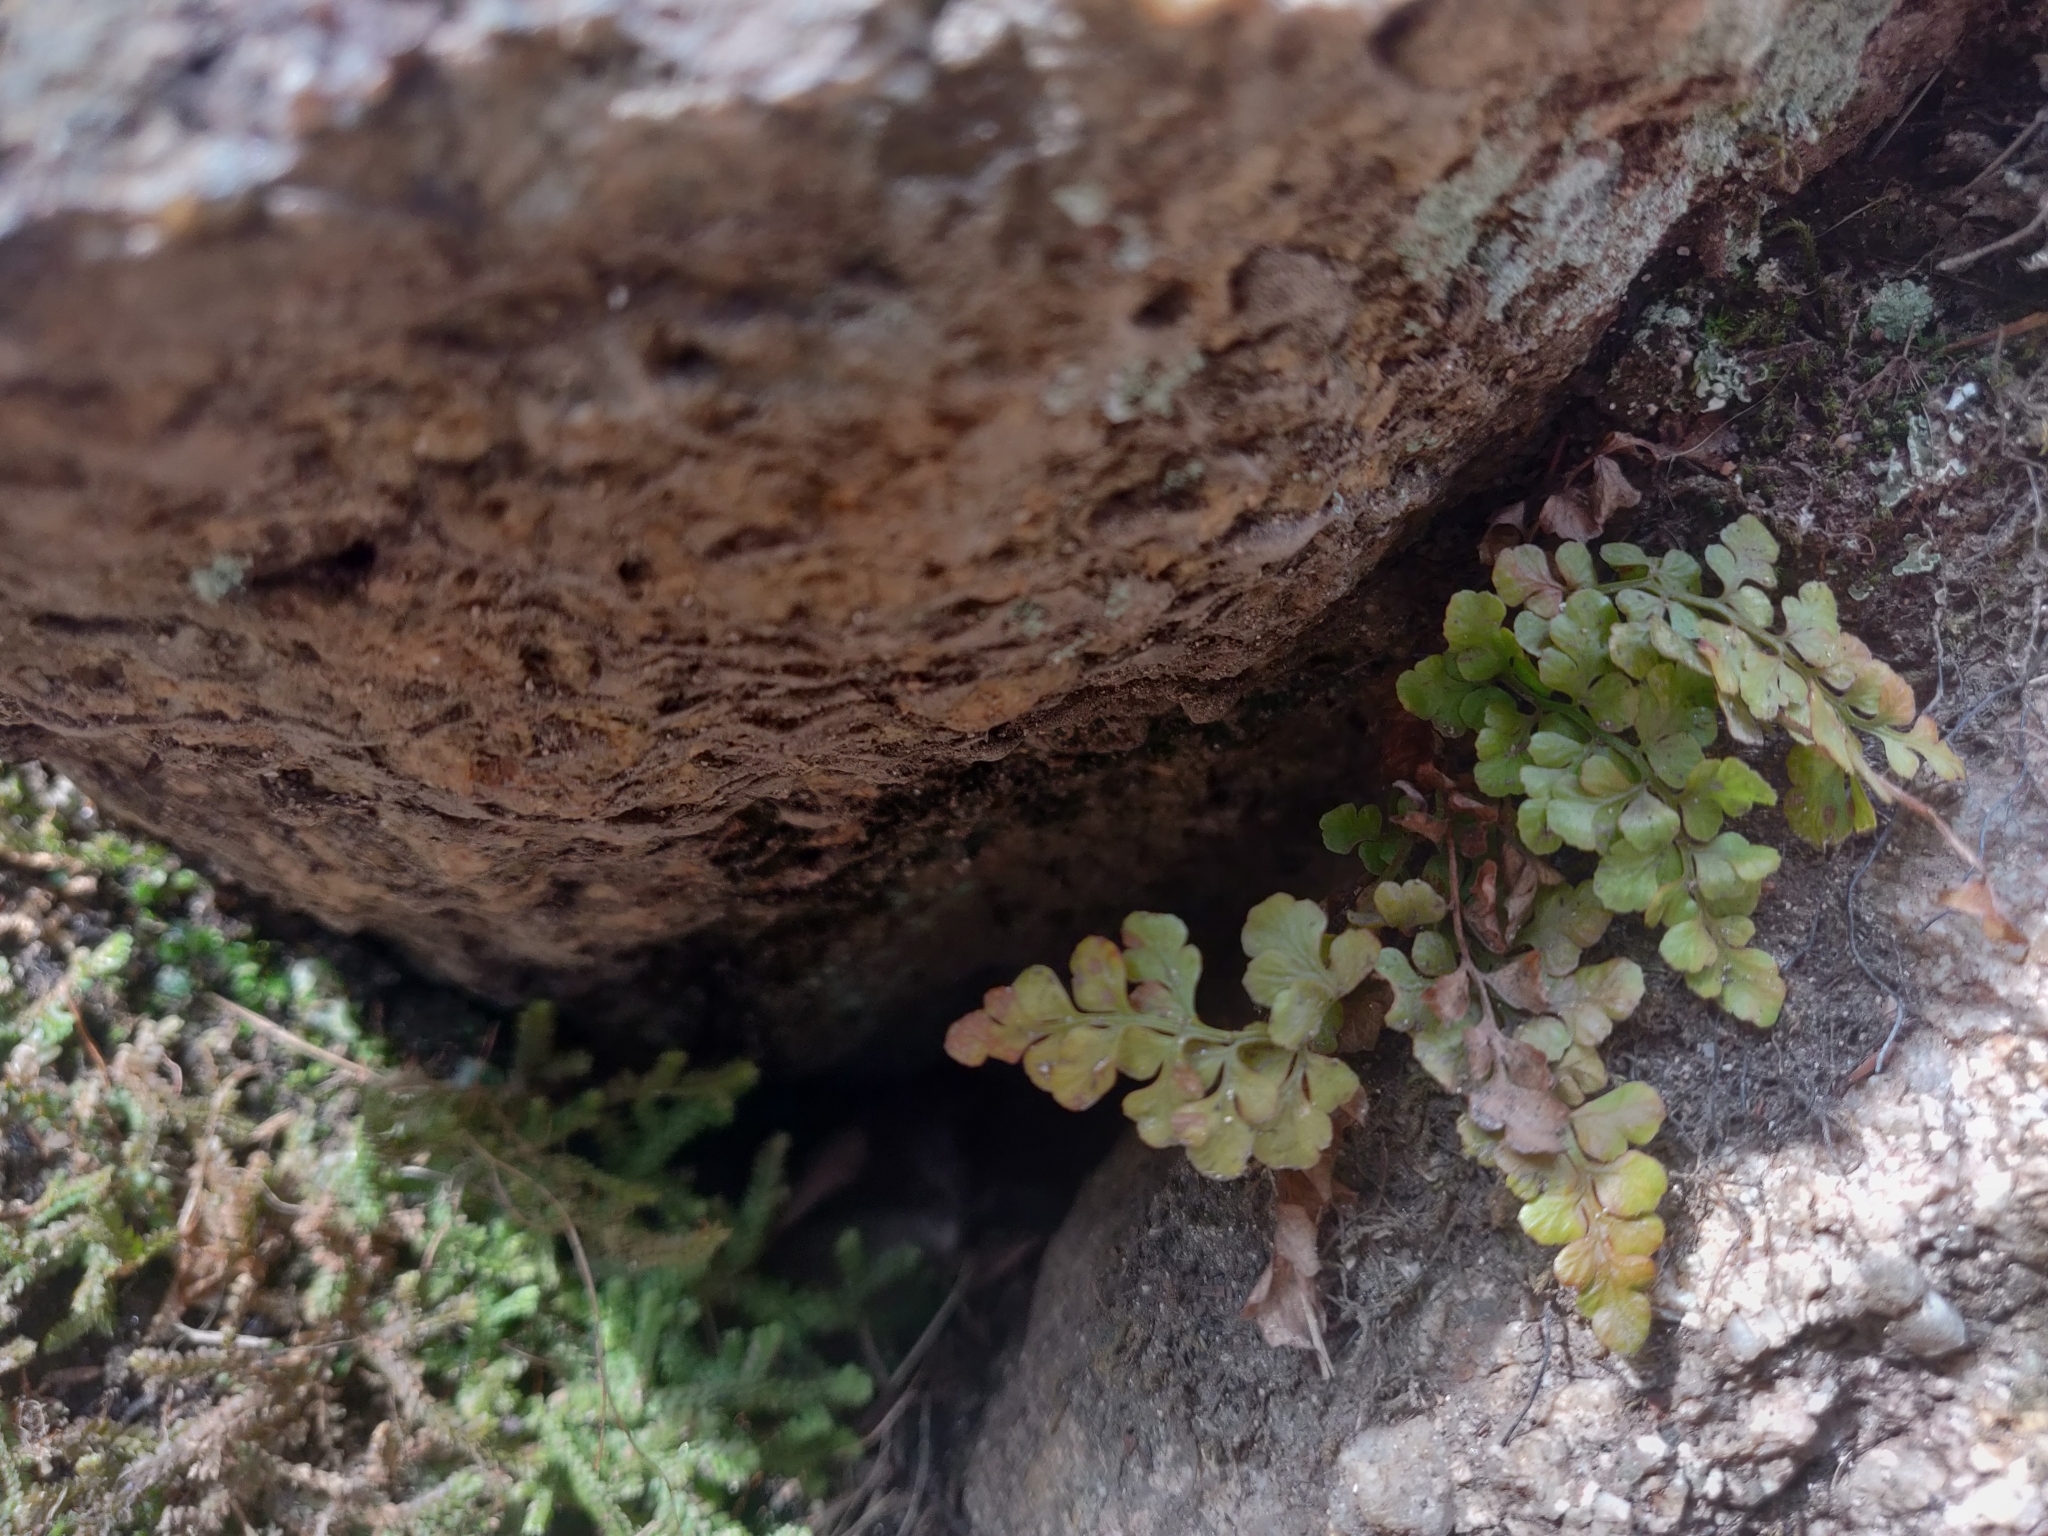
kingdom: Plantae
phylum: Tracheophyta
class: Polypodiopsida
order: Polypodiales
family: Aspleniaceae
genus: Asplenium
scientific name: Asplenium ruta-muraria
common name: Wall-rue
